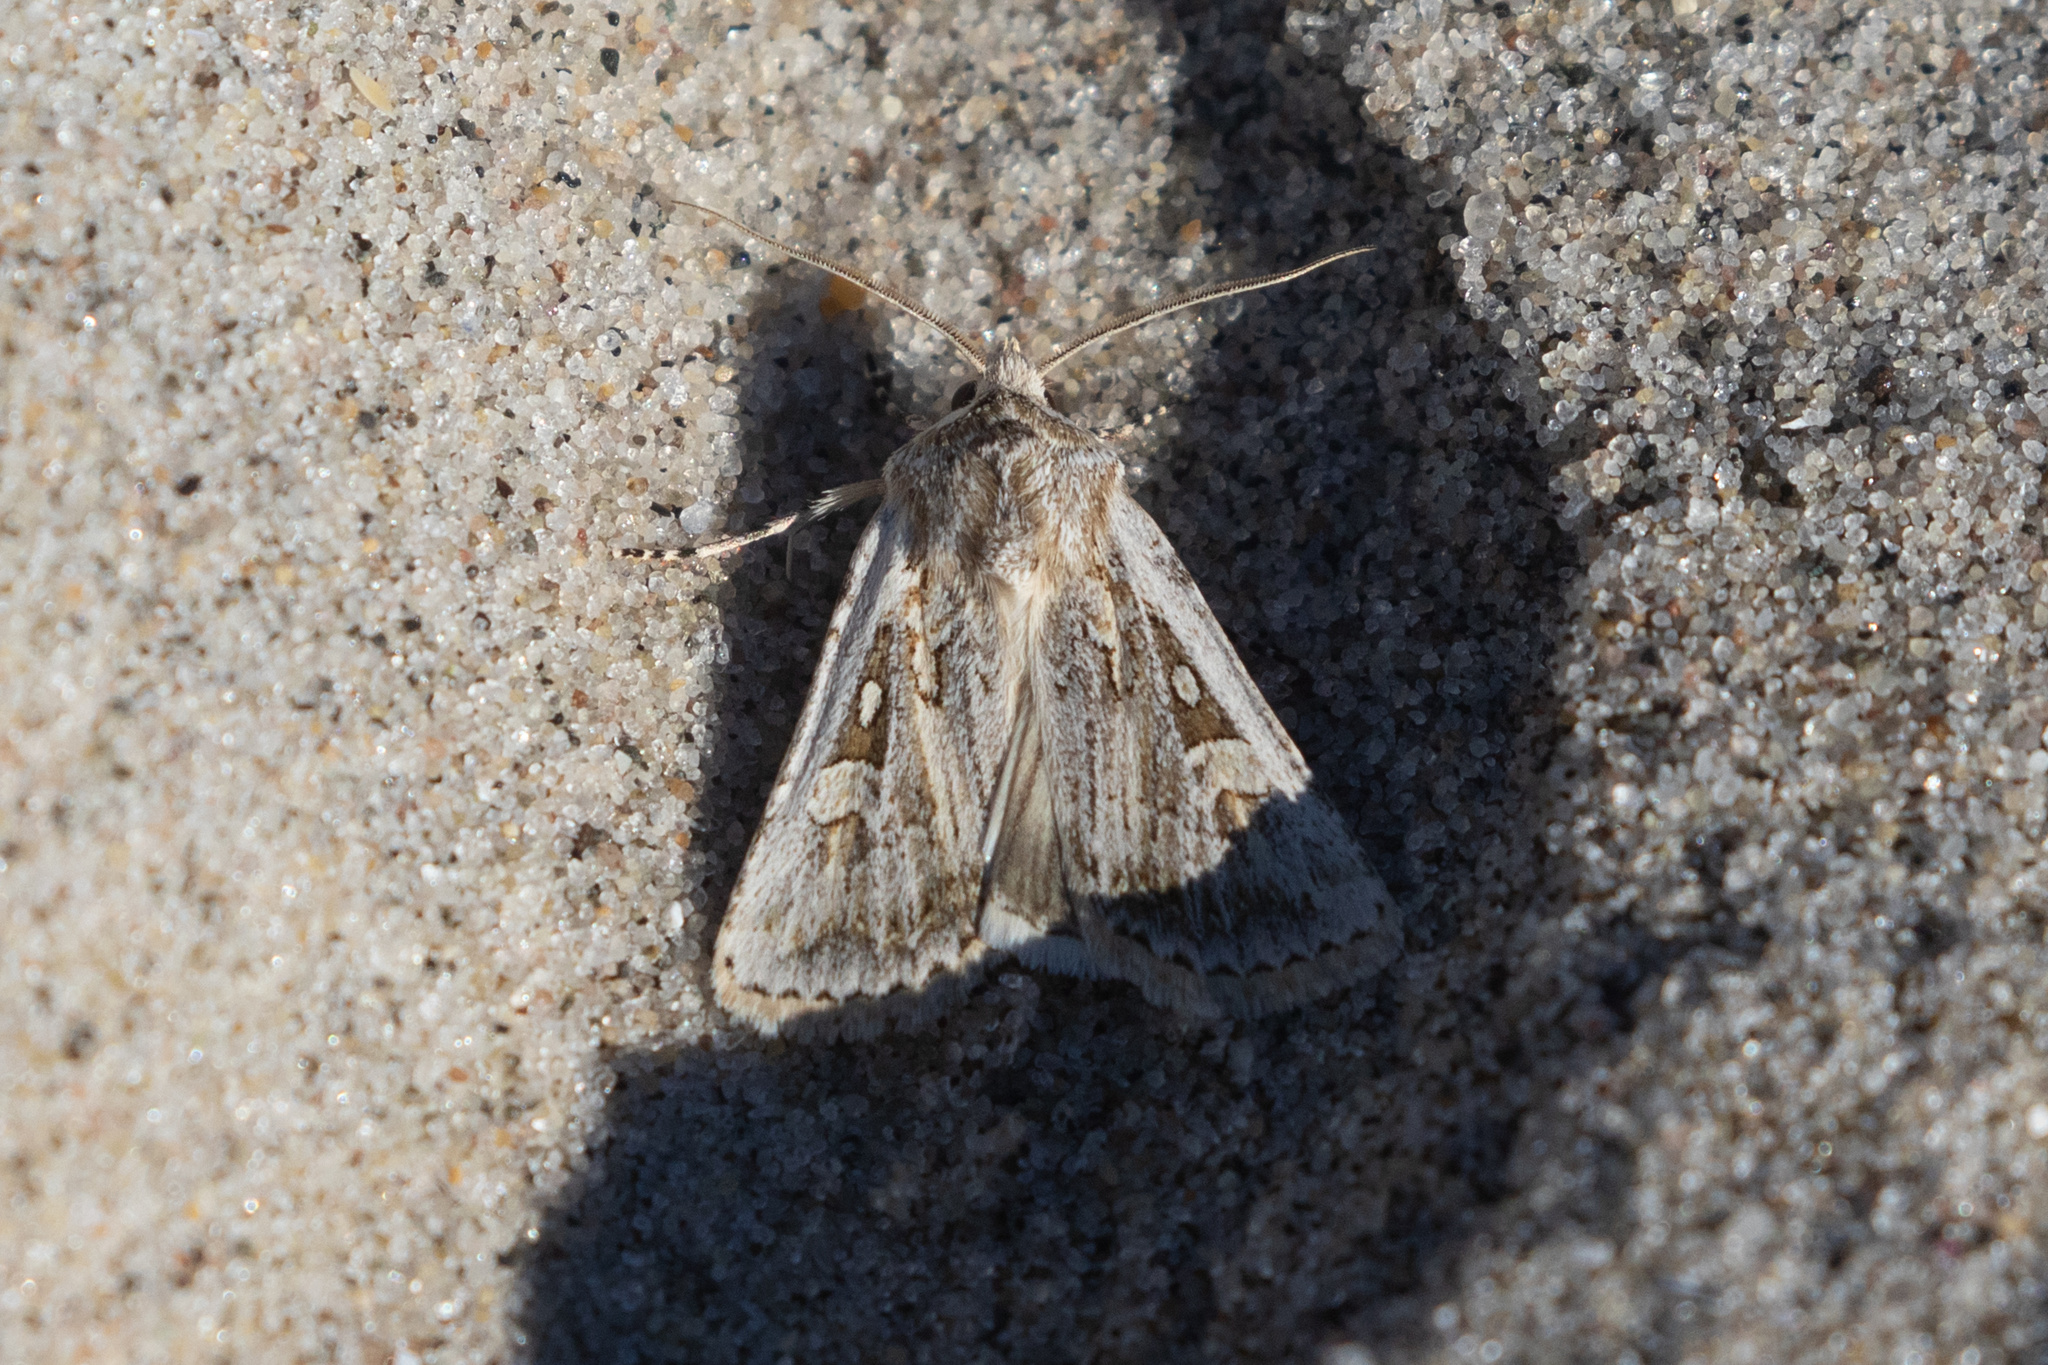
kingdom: Animalia
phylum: Arthropoda
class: Insecta
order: Lepidoptera
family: Noctuidae
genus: Euxoa
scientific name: Euxoa detersa
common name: Rubbed dart
